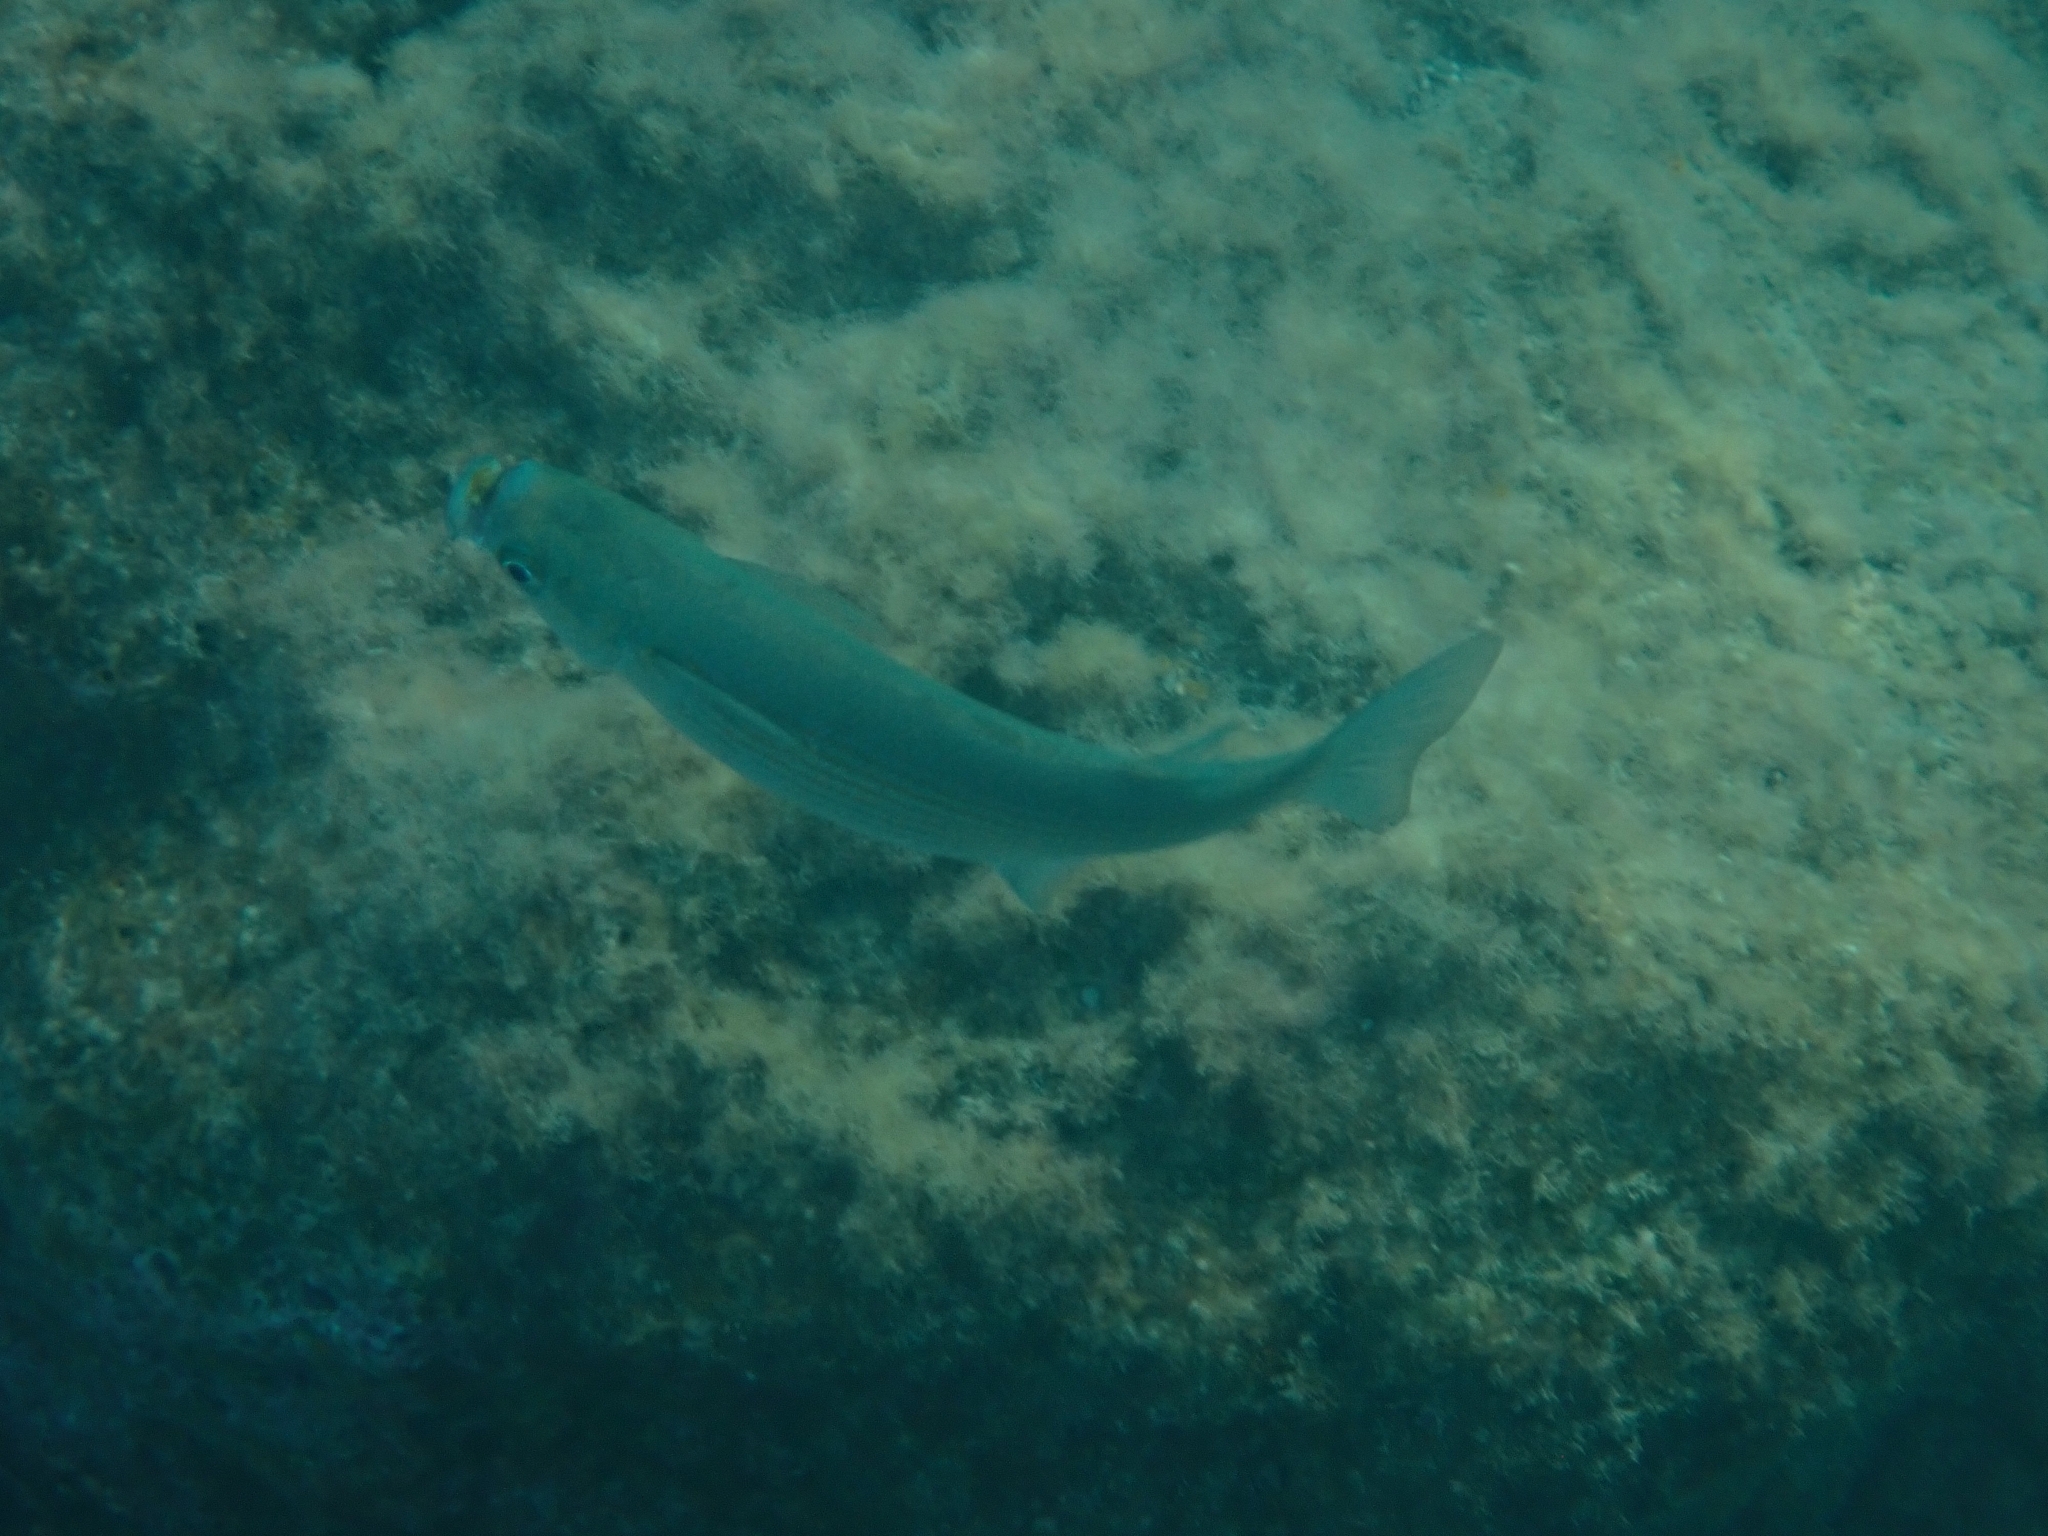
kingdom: Animalia
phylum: Chordata
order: Mugiliformes
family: Mugilidae
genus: Oedalechilus
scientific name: Oedalechilus labeo
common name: Boxlip mullet
